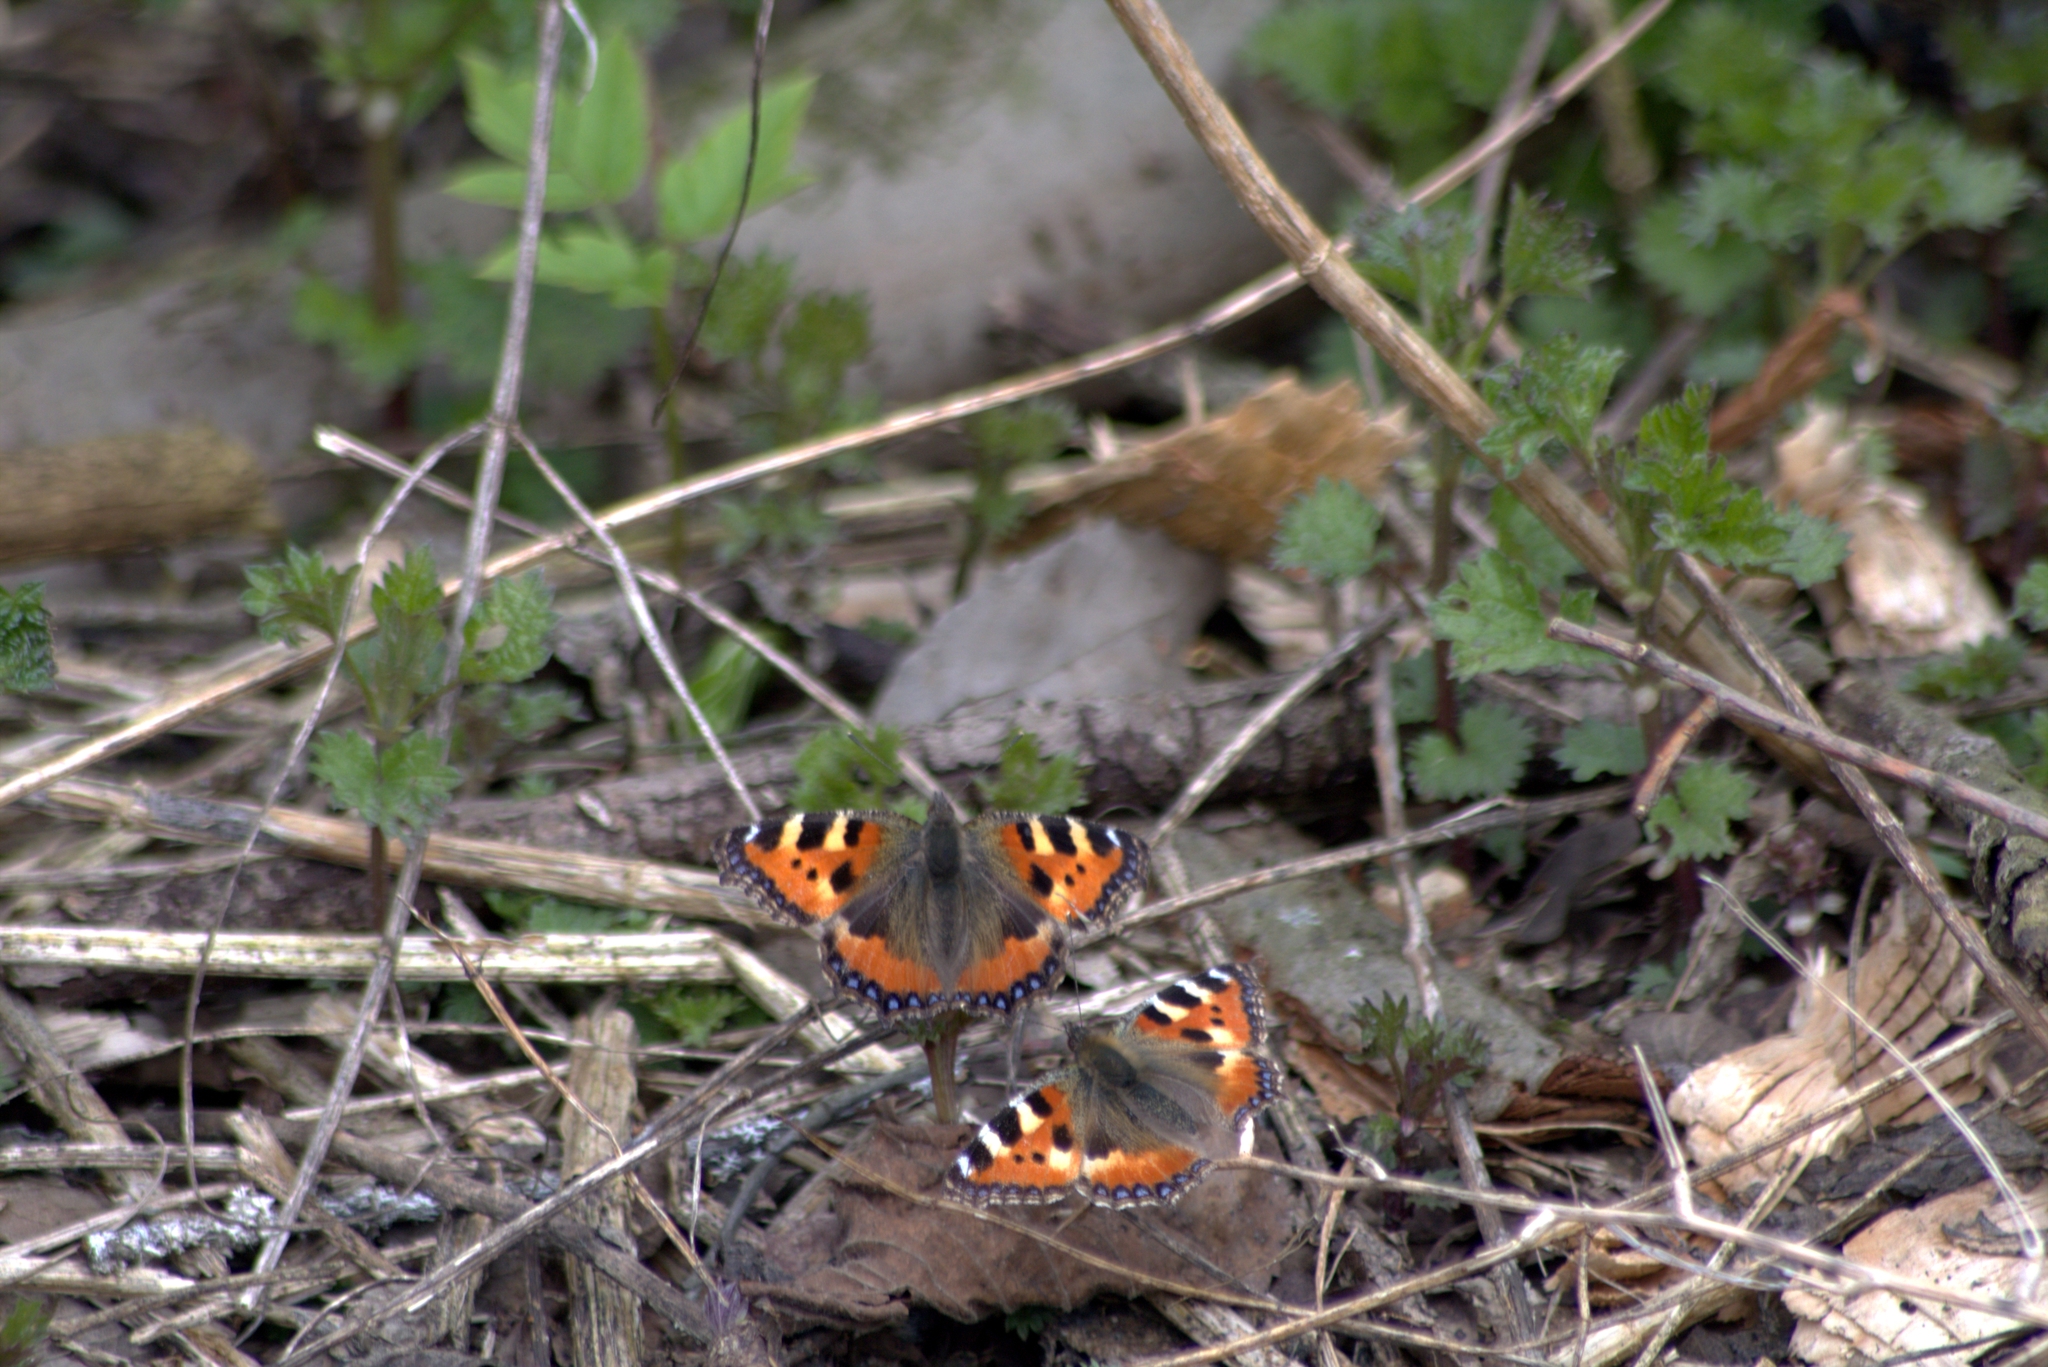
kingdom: Animalia
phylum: Arthropoda
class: Insecta
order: Lepidoptera
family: Nymphalidae
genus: Aglais
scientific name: Aglais urticae
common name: Small tortoiseshell
